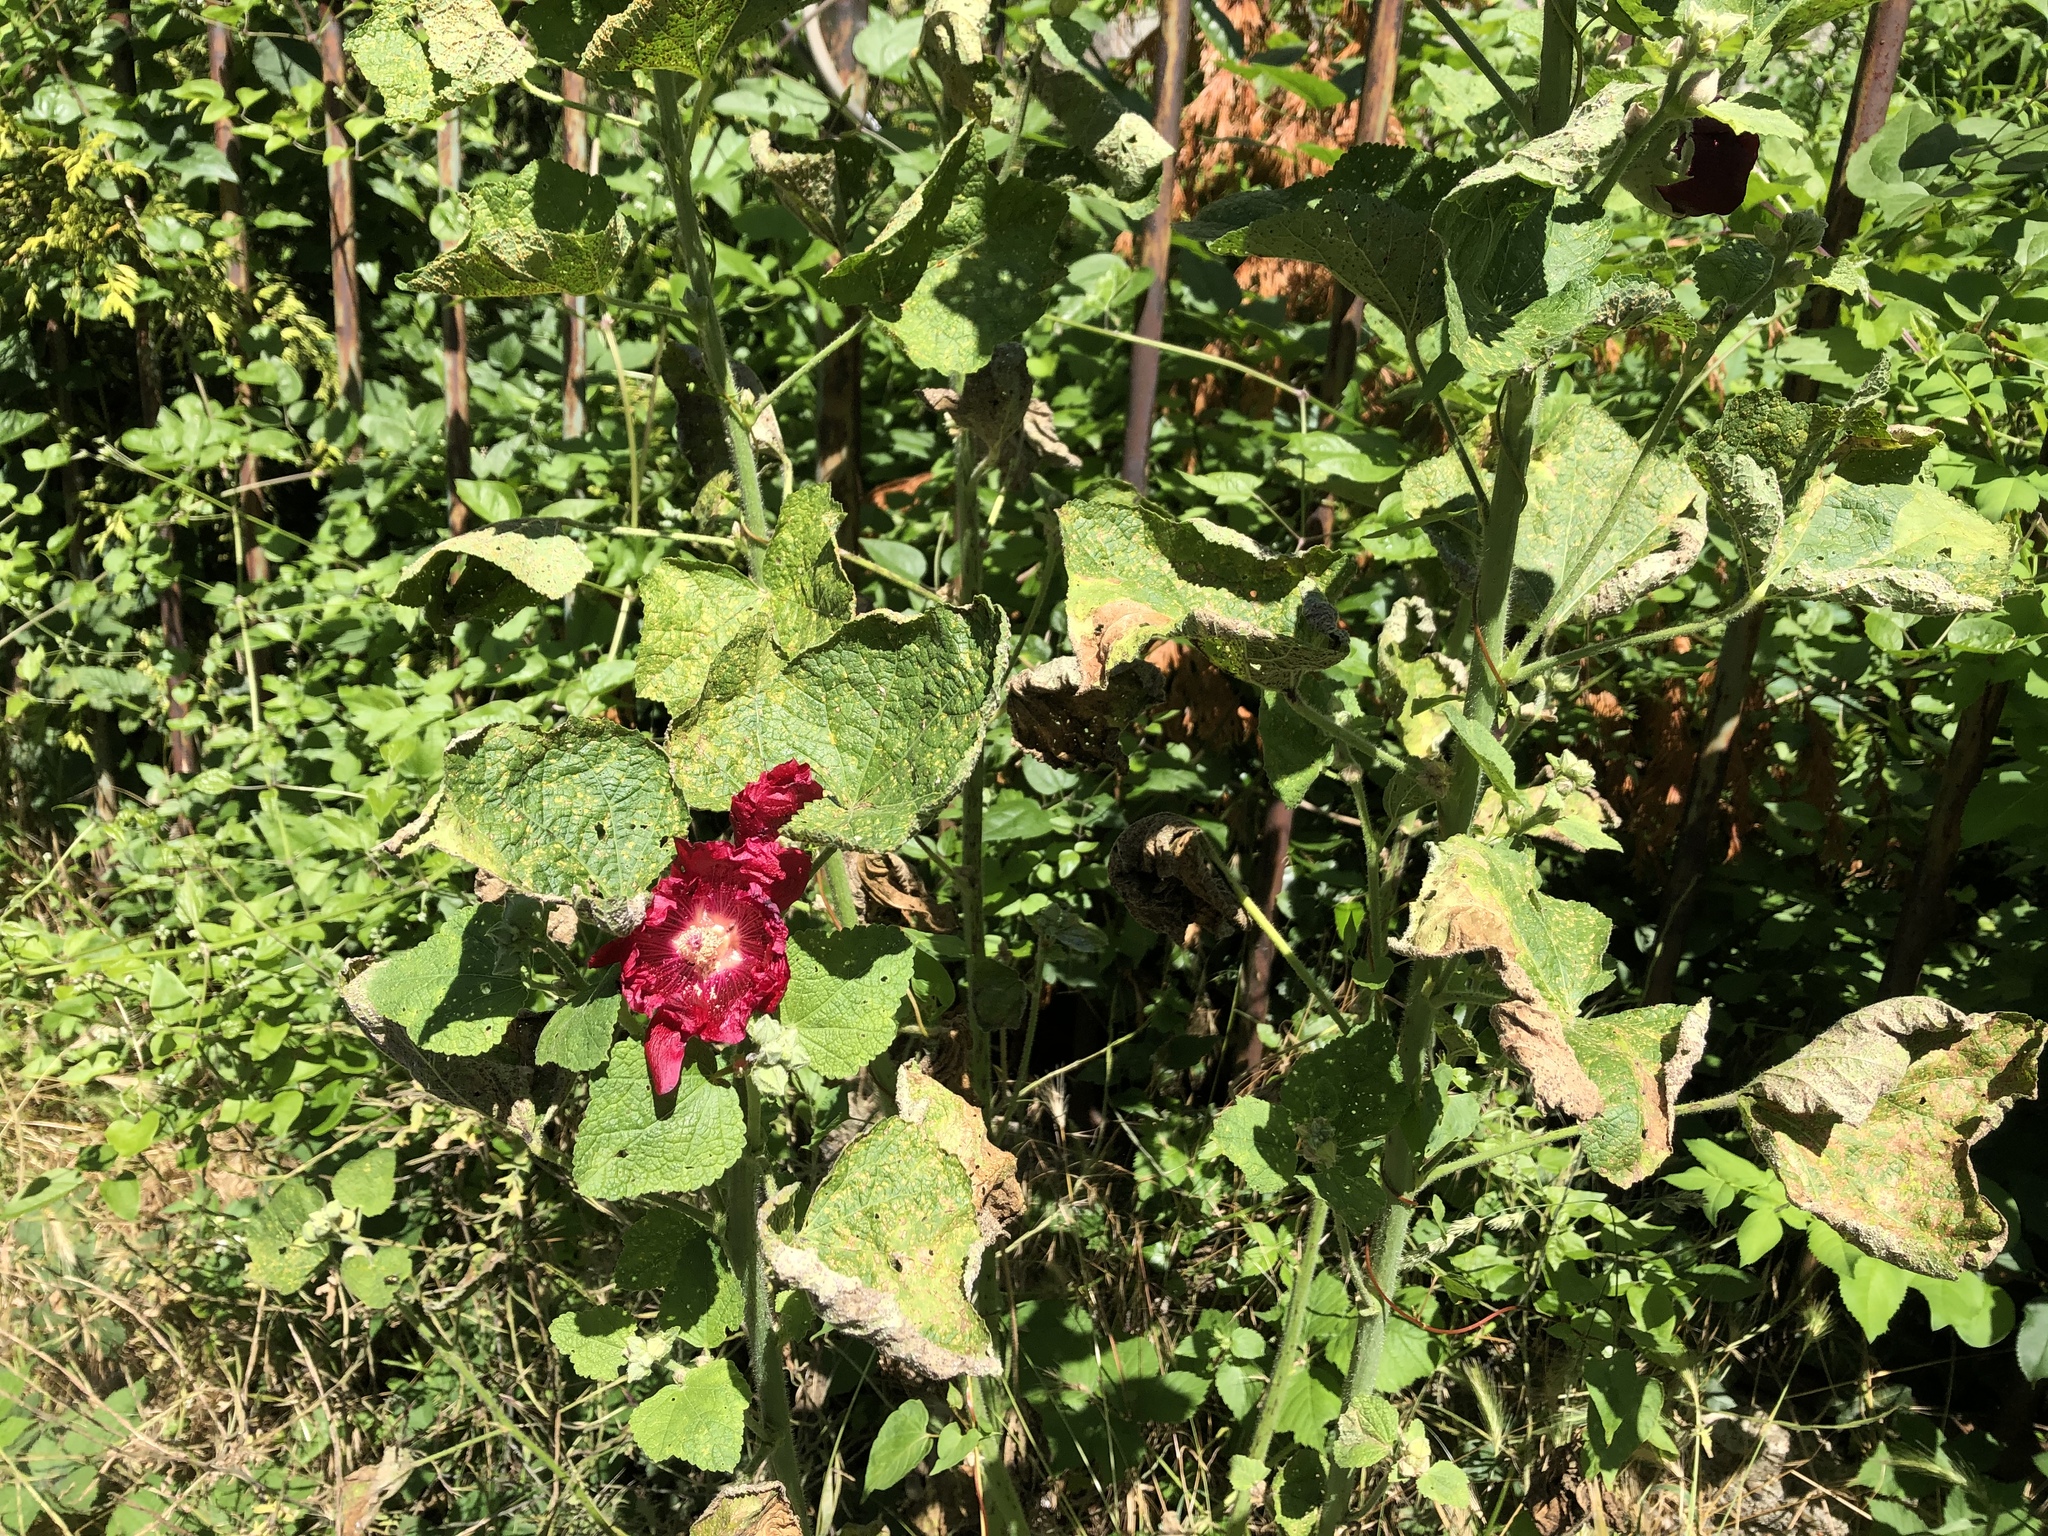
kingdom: Plantae
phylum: Tracheophyta
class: Magnoliopsida
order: Malvales
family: Malvaceae
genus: Alcea
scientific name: Alcea rosea
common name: Hollyhock
